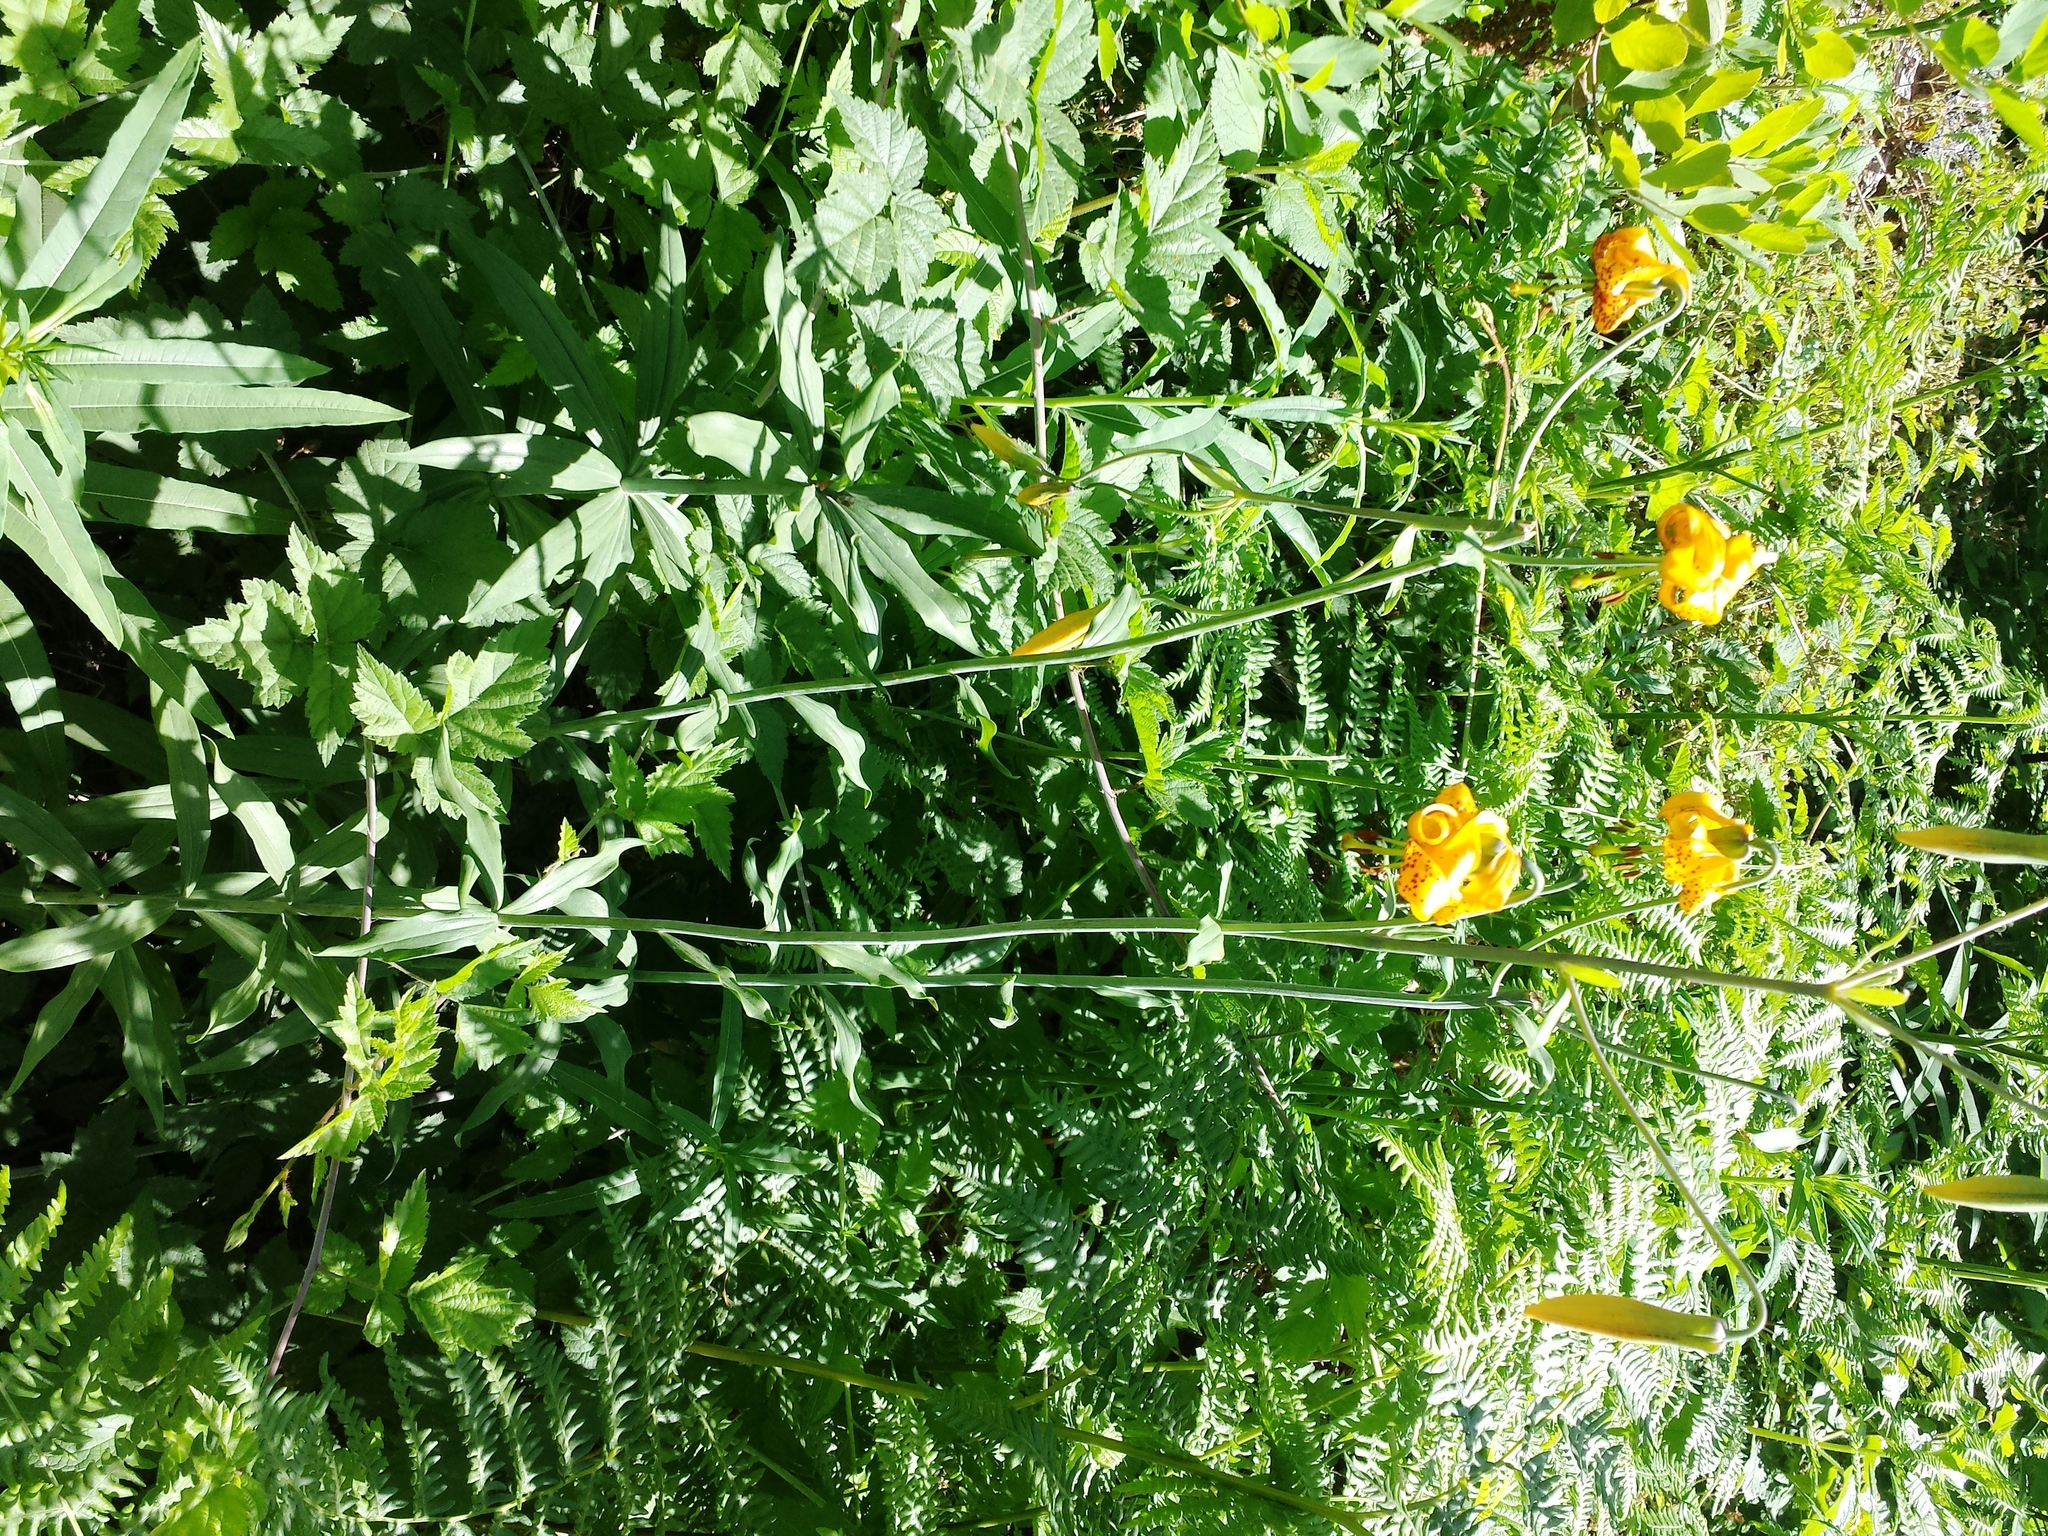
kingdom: Plantae
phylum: Tracheophyta
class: Liliopsida
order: Liliales
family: Liliaceae
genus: Lilium
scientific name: Lilium columbianum
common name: Columbia lily
